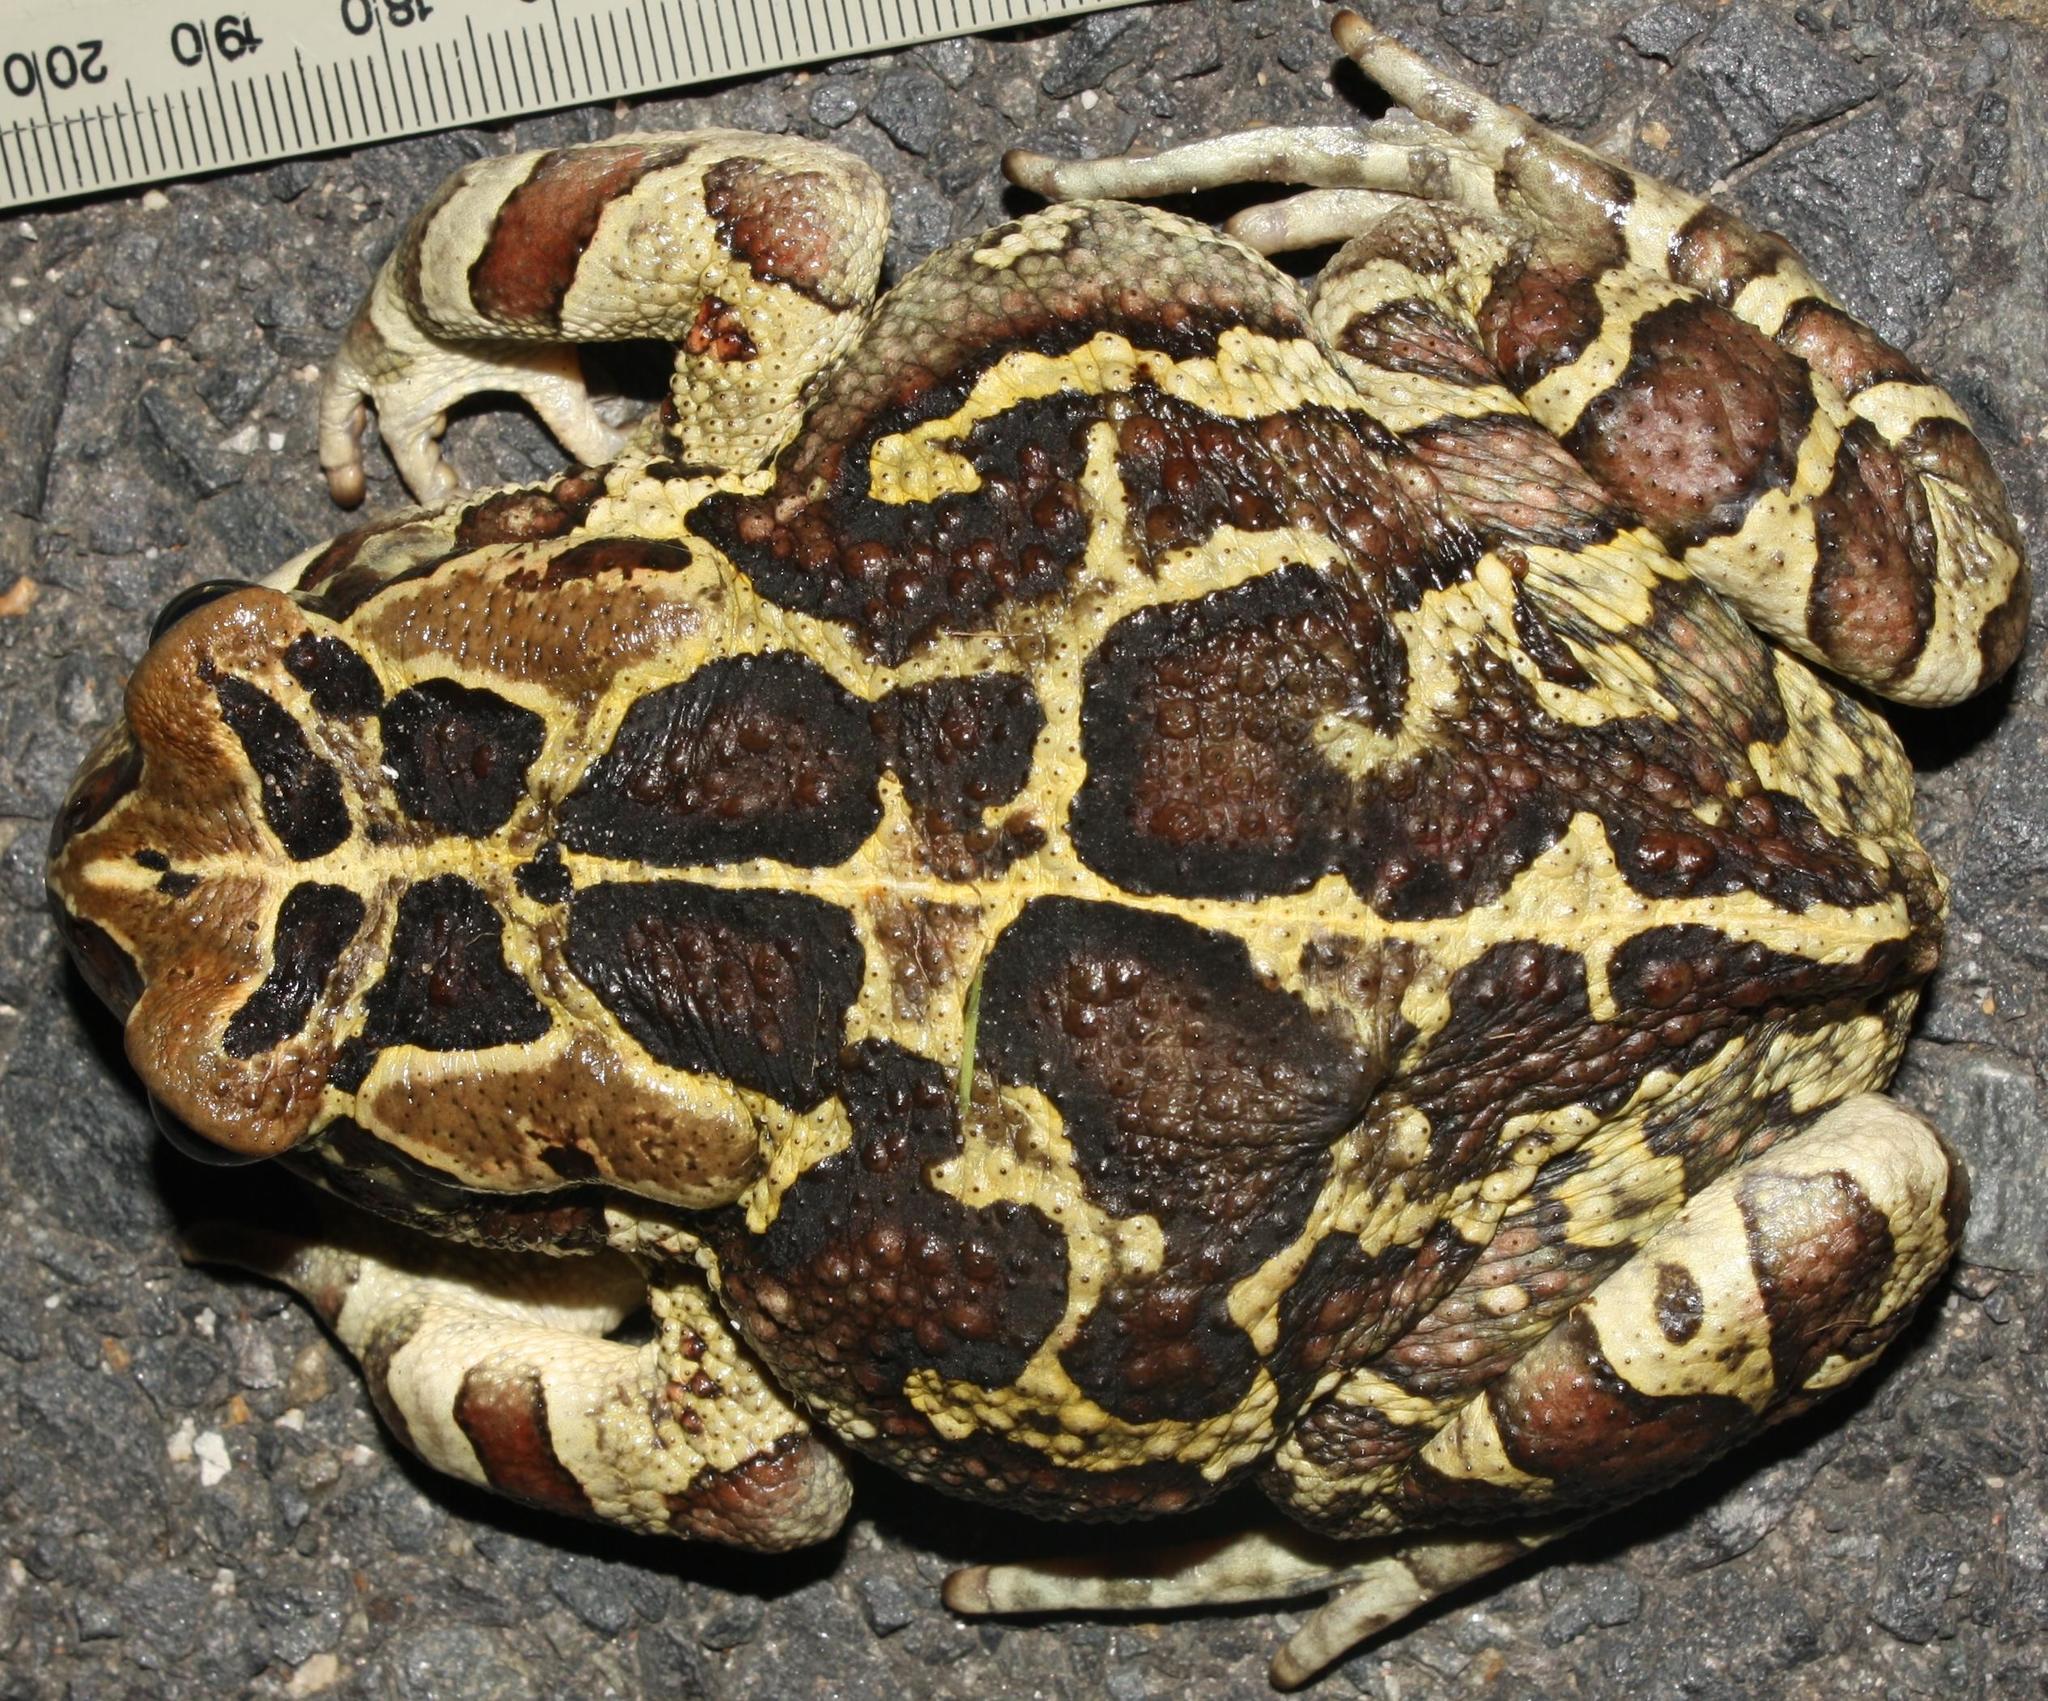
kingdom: Animalia
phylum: Chordata
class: Amphibia
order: Anura
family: Bufonidae
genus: Sclerophrys
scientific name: Sclerophrys pantherina
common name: Panther toad
